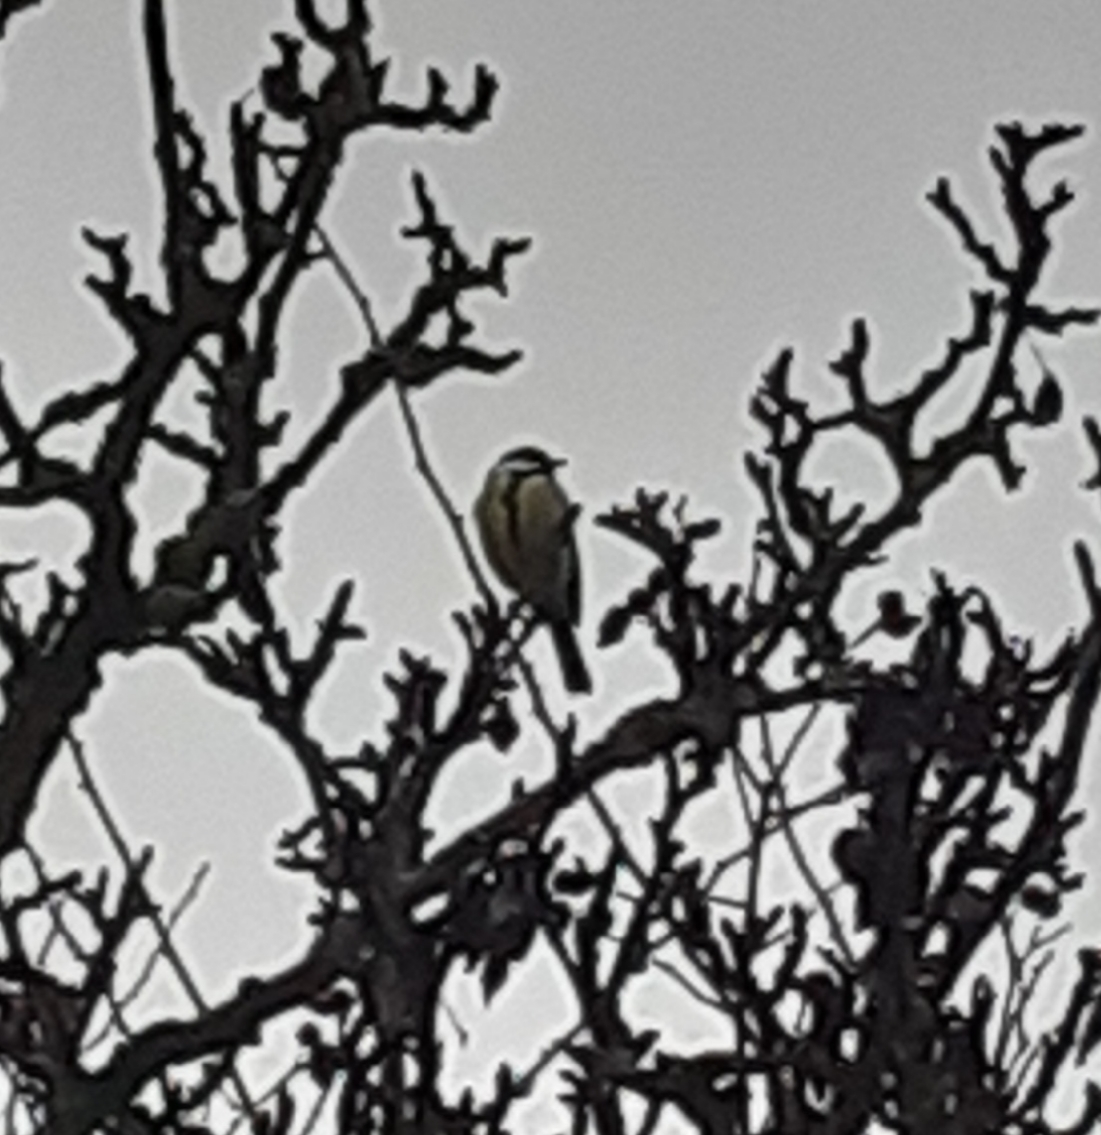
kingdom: Animalia
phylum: Chordata
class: Aves
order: Passeriformes
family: Paridae
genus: Parus
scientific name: Parus major
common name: Great tit
